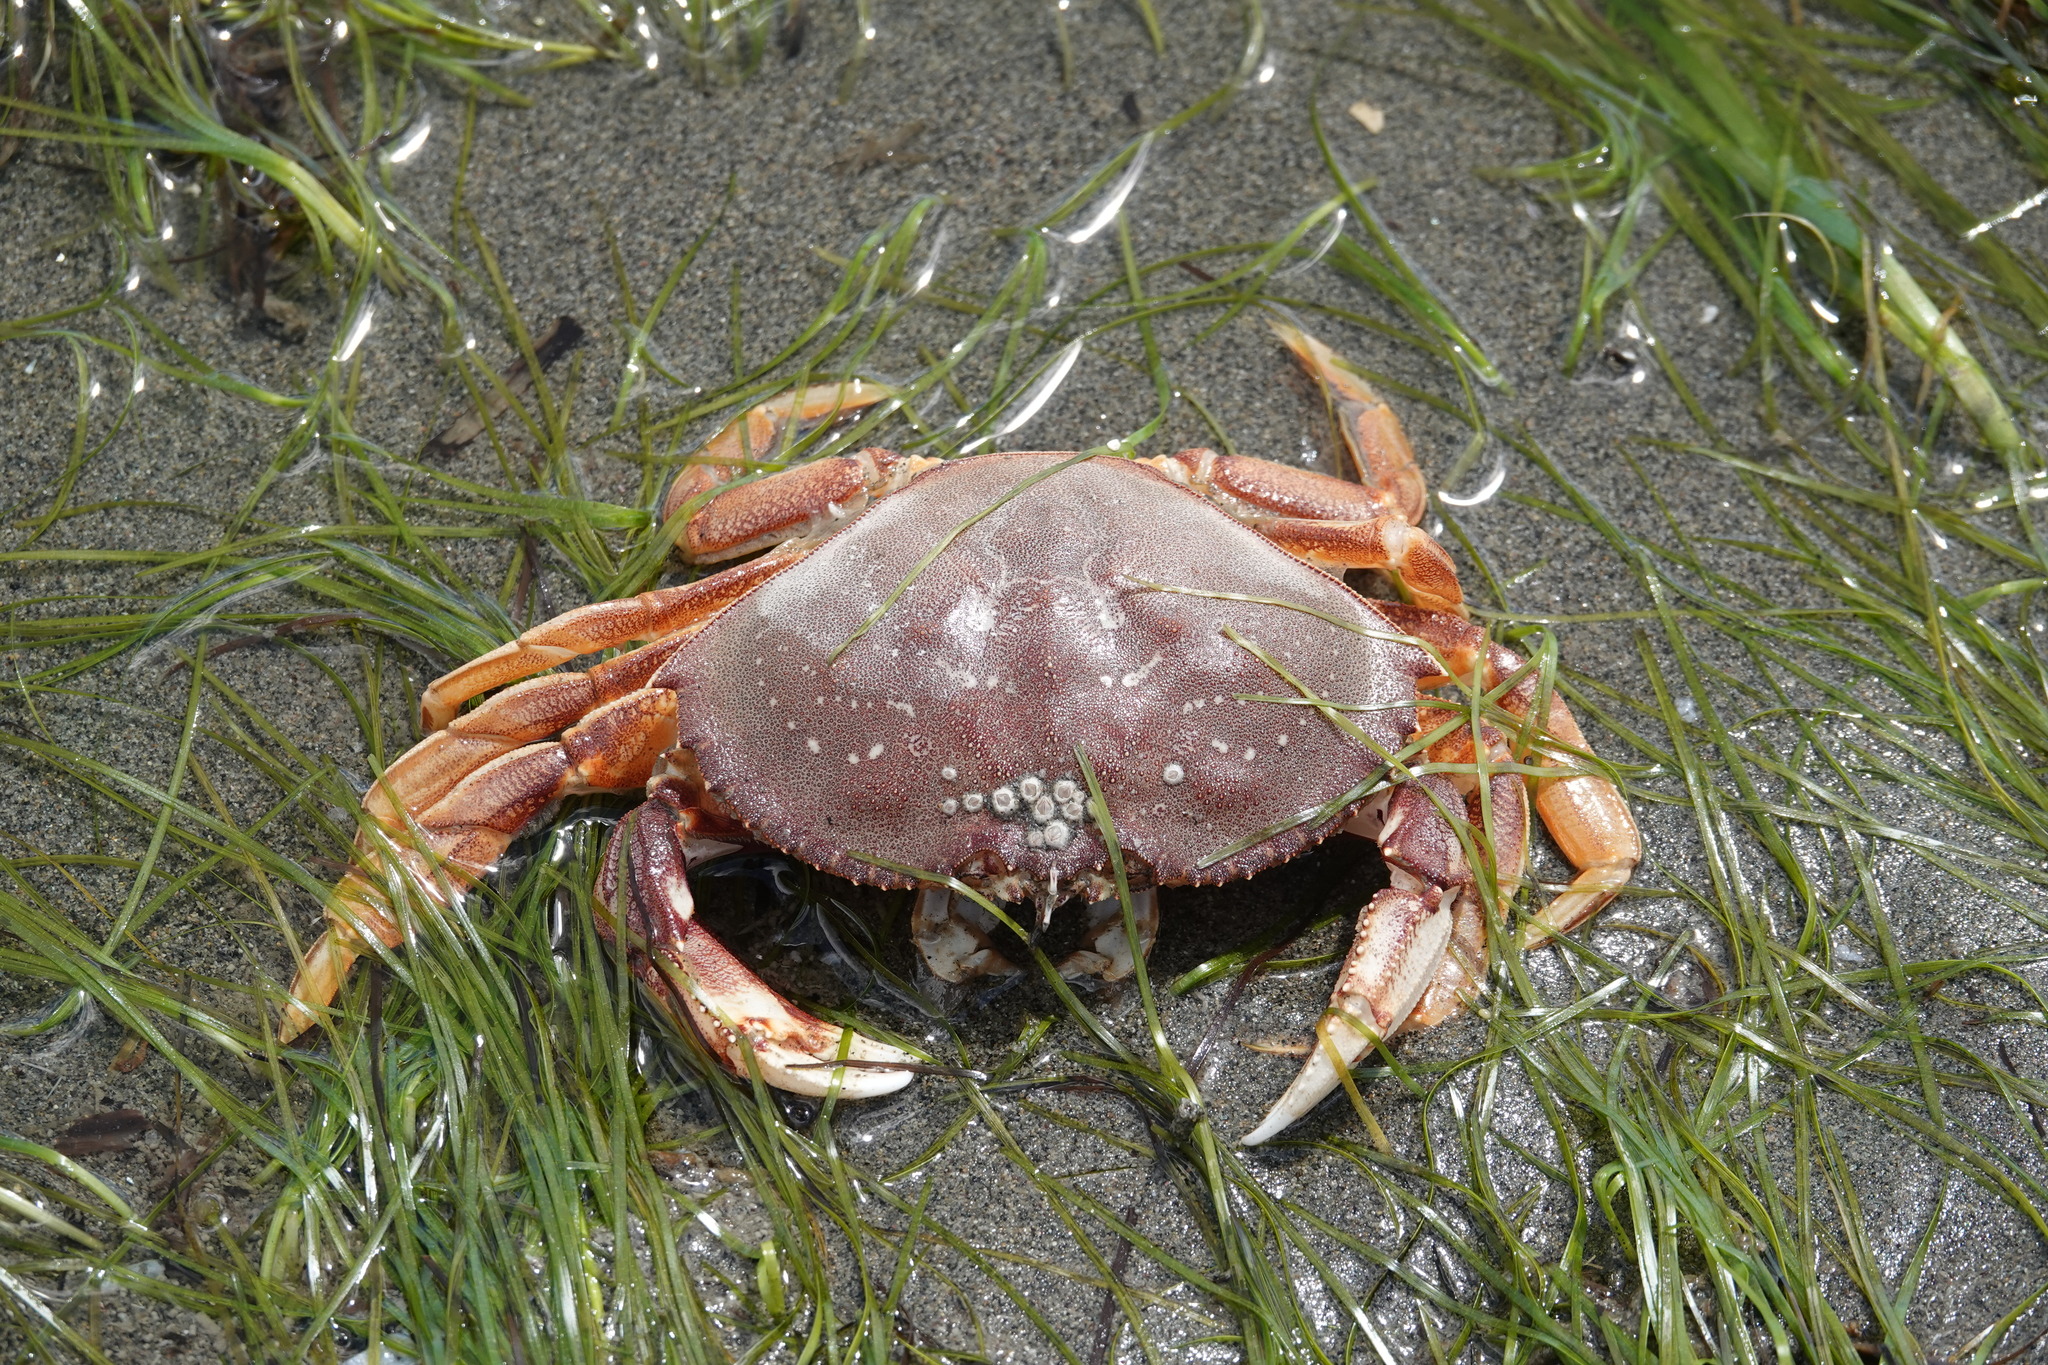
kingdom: Animalia
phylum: Arthropoda
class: Malacostraca
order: Decapoda
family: Cancridae
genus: Metacarcinus
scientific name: Metacarcinus magister
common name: Californian crab
